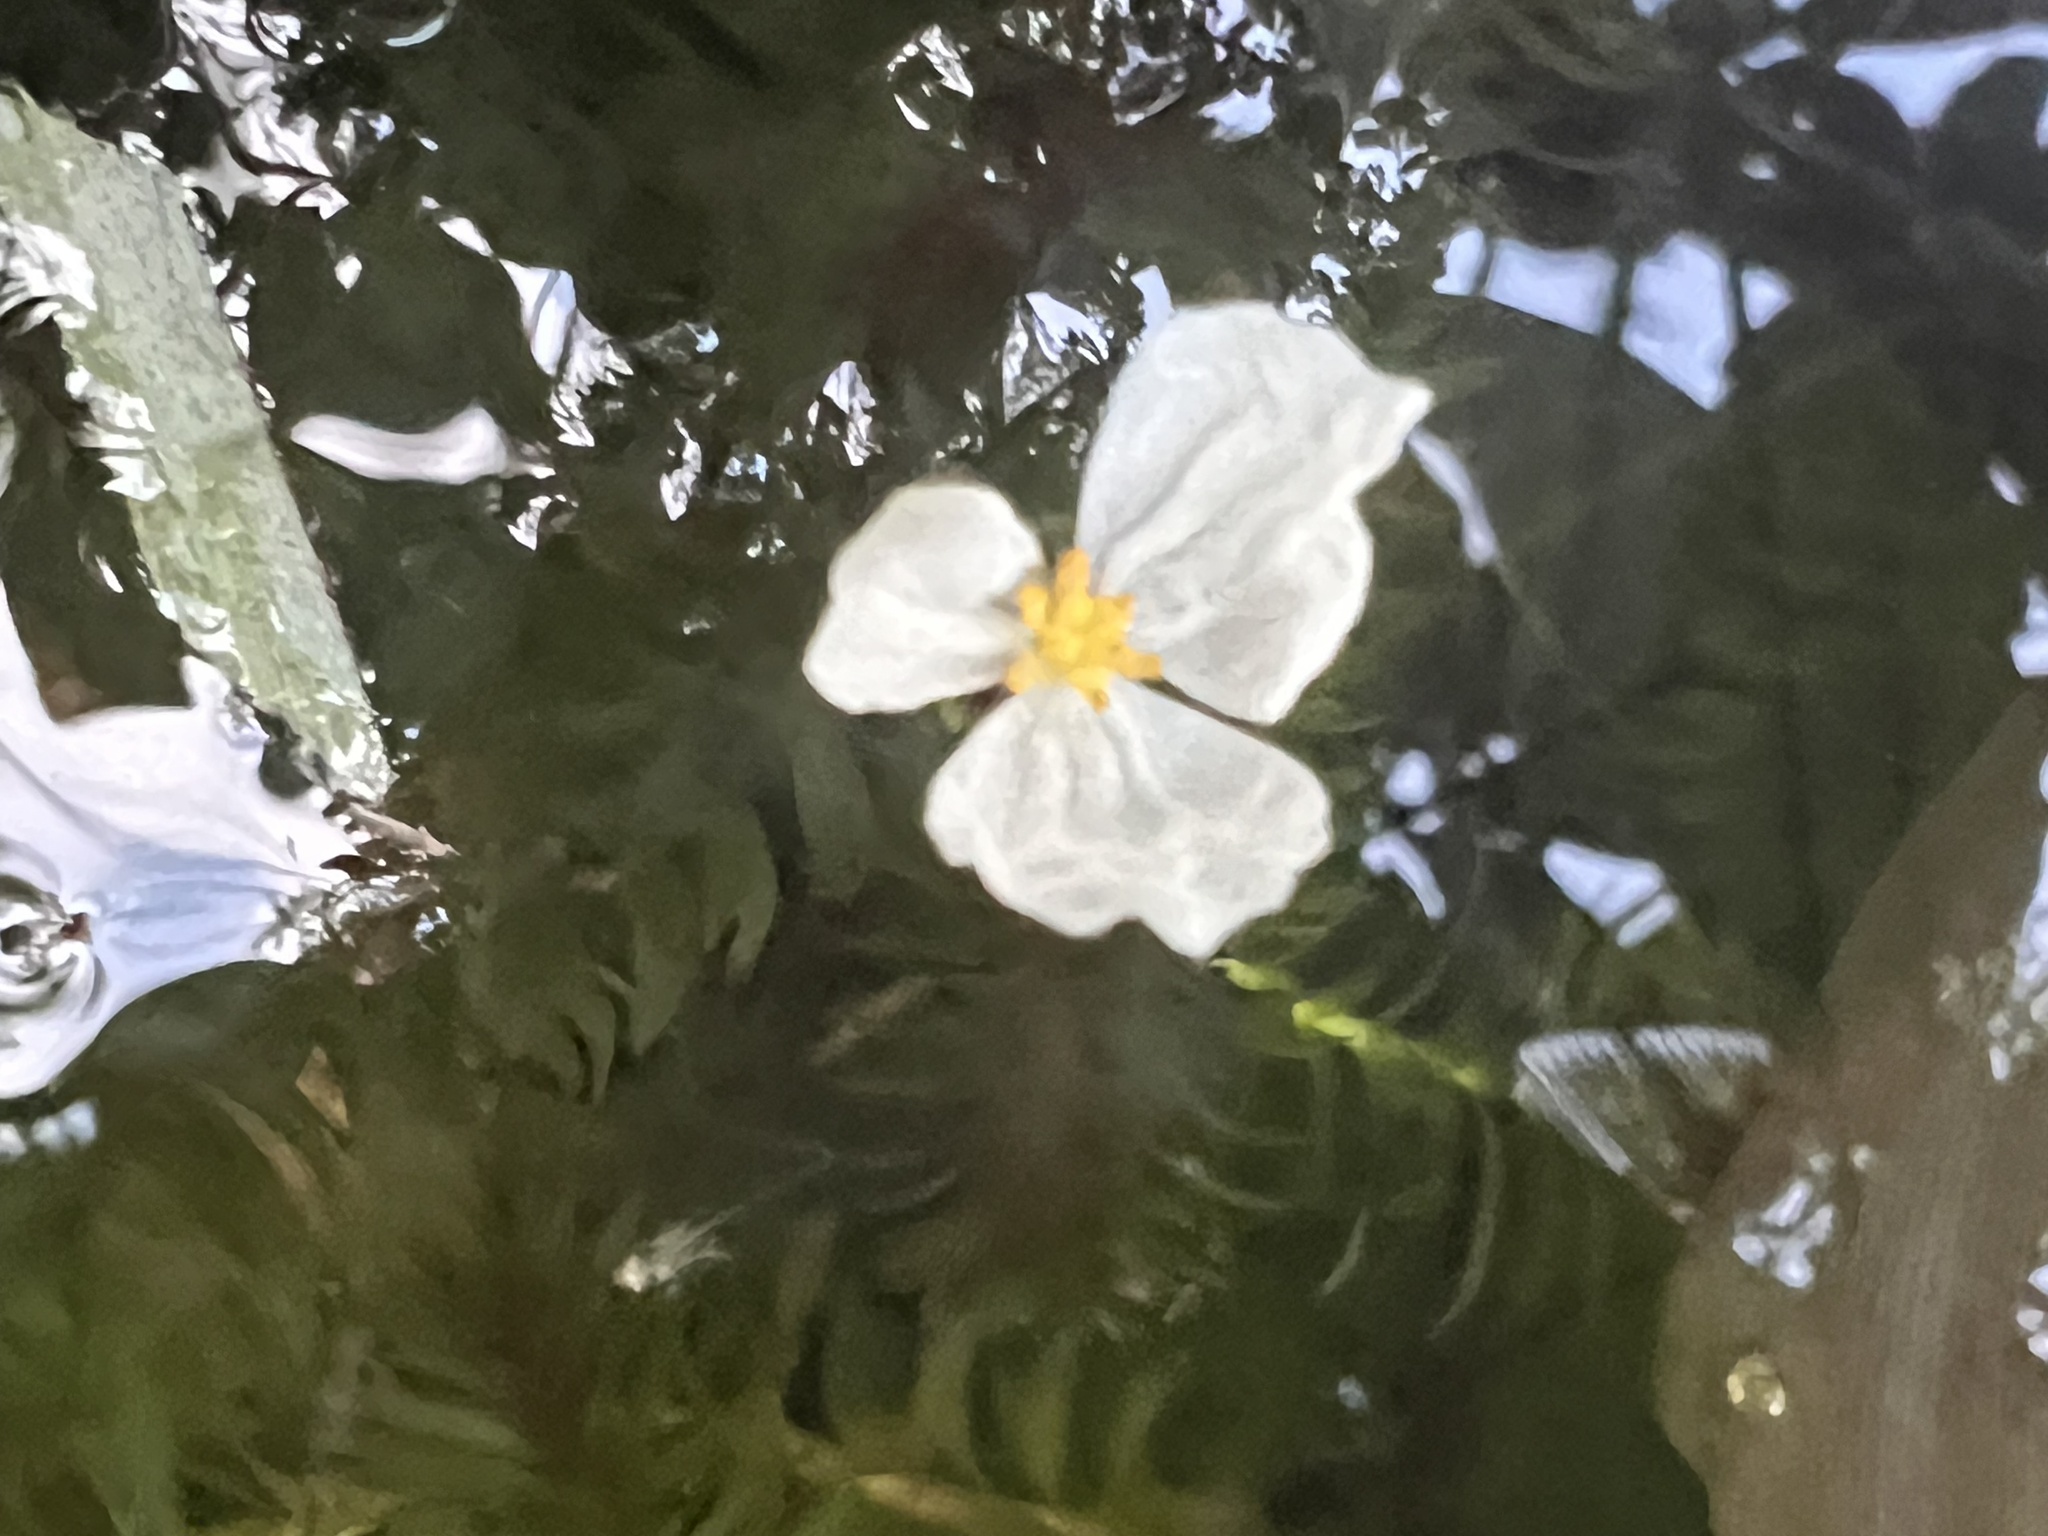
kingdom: Plantae
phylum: Tracheophyta
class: Liliopsida
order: Alismatales
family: Hydrocharitaceae
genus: Elodea
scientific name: Elodea densa
